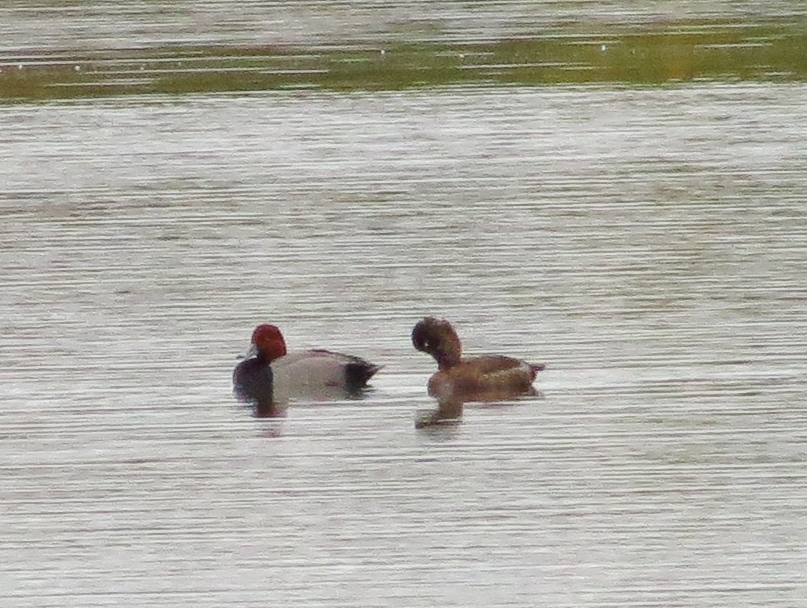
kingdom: Animalia
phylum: Chordata
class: Aves
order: Anseriformes
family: Anatidae
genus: Aythya
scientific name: Aythya americana
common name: Redhead
